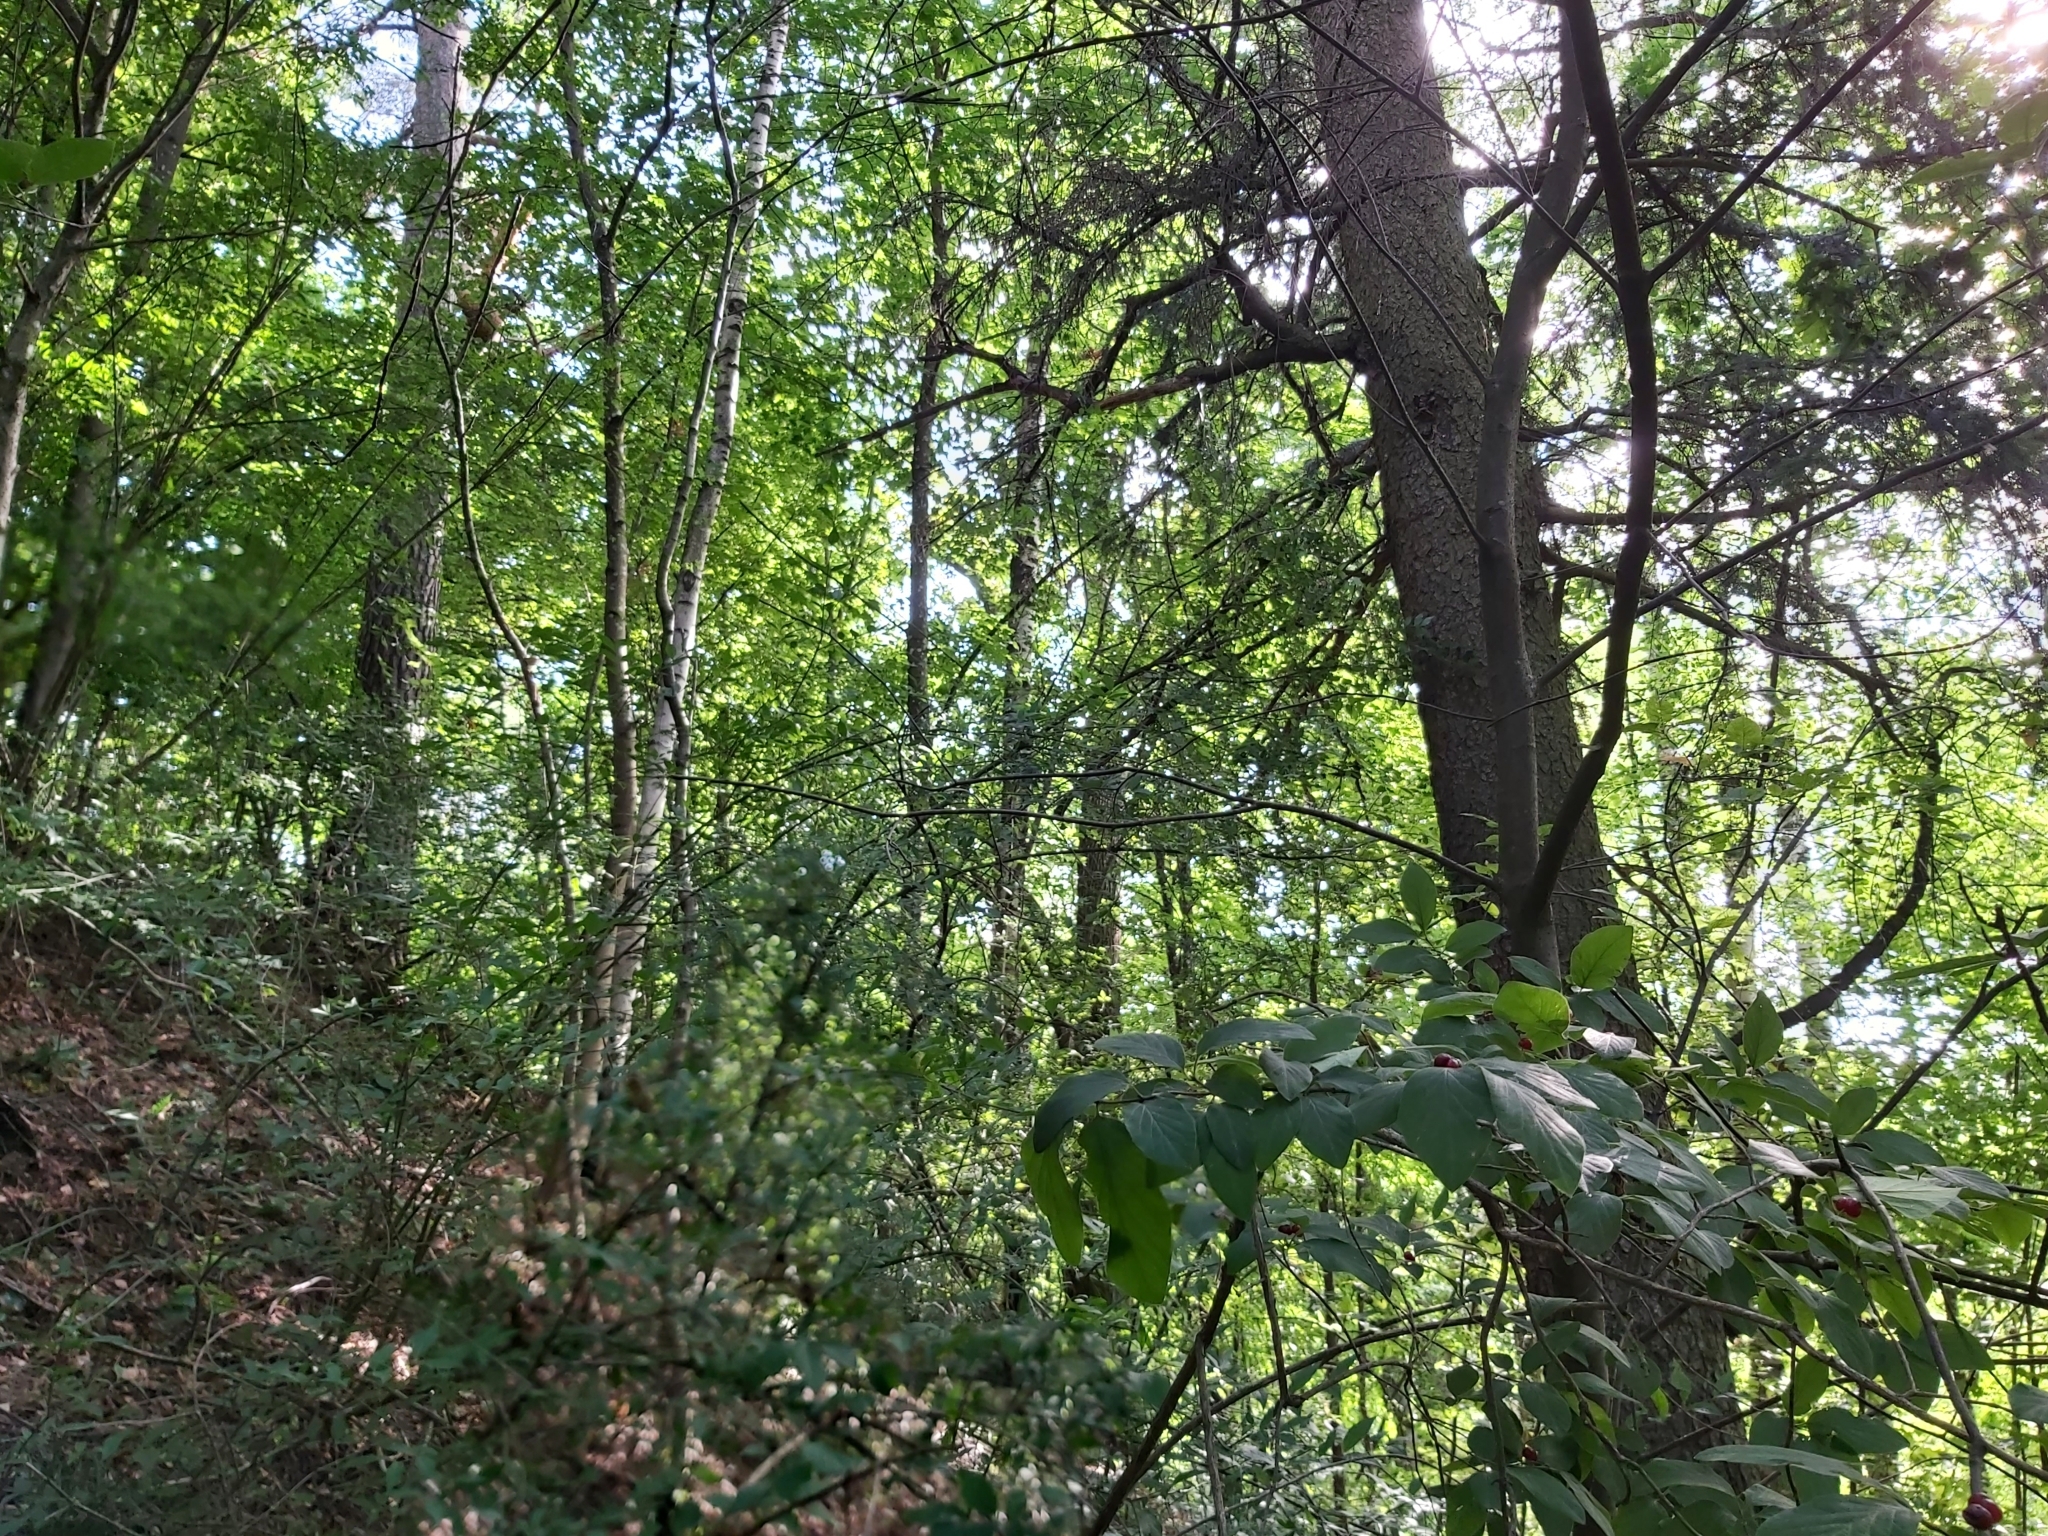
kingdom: Animalia
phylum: Chordata
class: Aves
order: Passeriformes
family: Phylloscopidae
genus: Phylloscopus
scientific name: Phylloscopus sibillatrix
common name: Wood warbler
